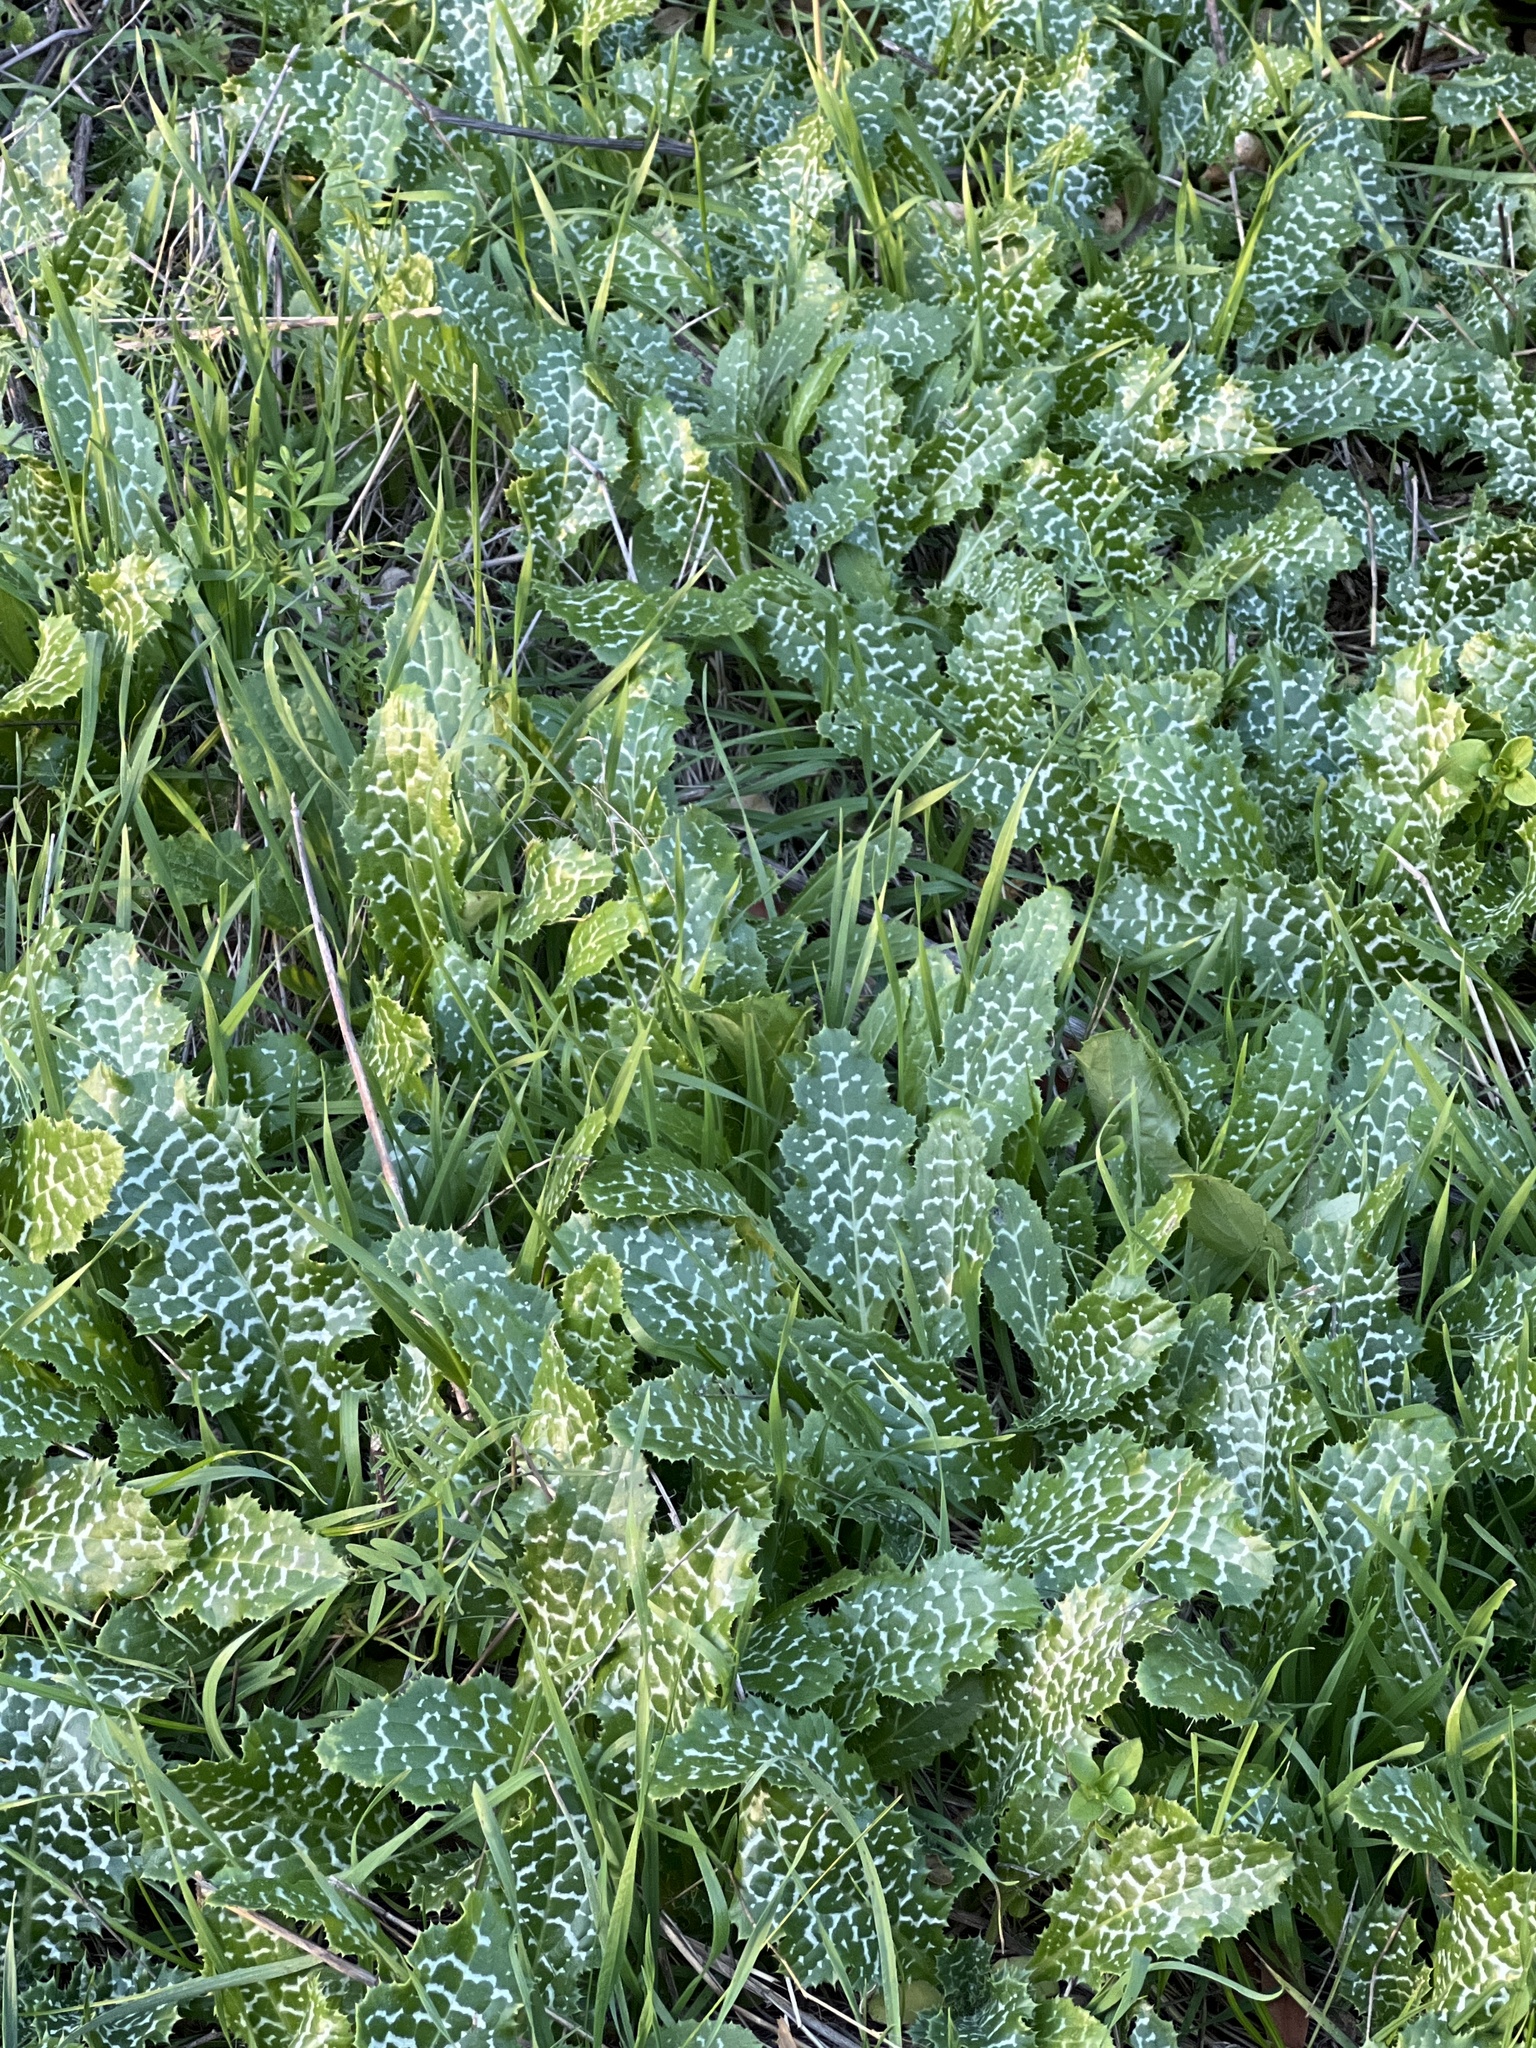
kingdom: Plantae
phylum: Tracheophyta
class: Magnoliopsida
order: Asterales
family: Asteraceae
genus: Silybum
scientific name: Silybum marianum
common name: Milk thistle
